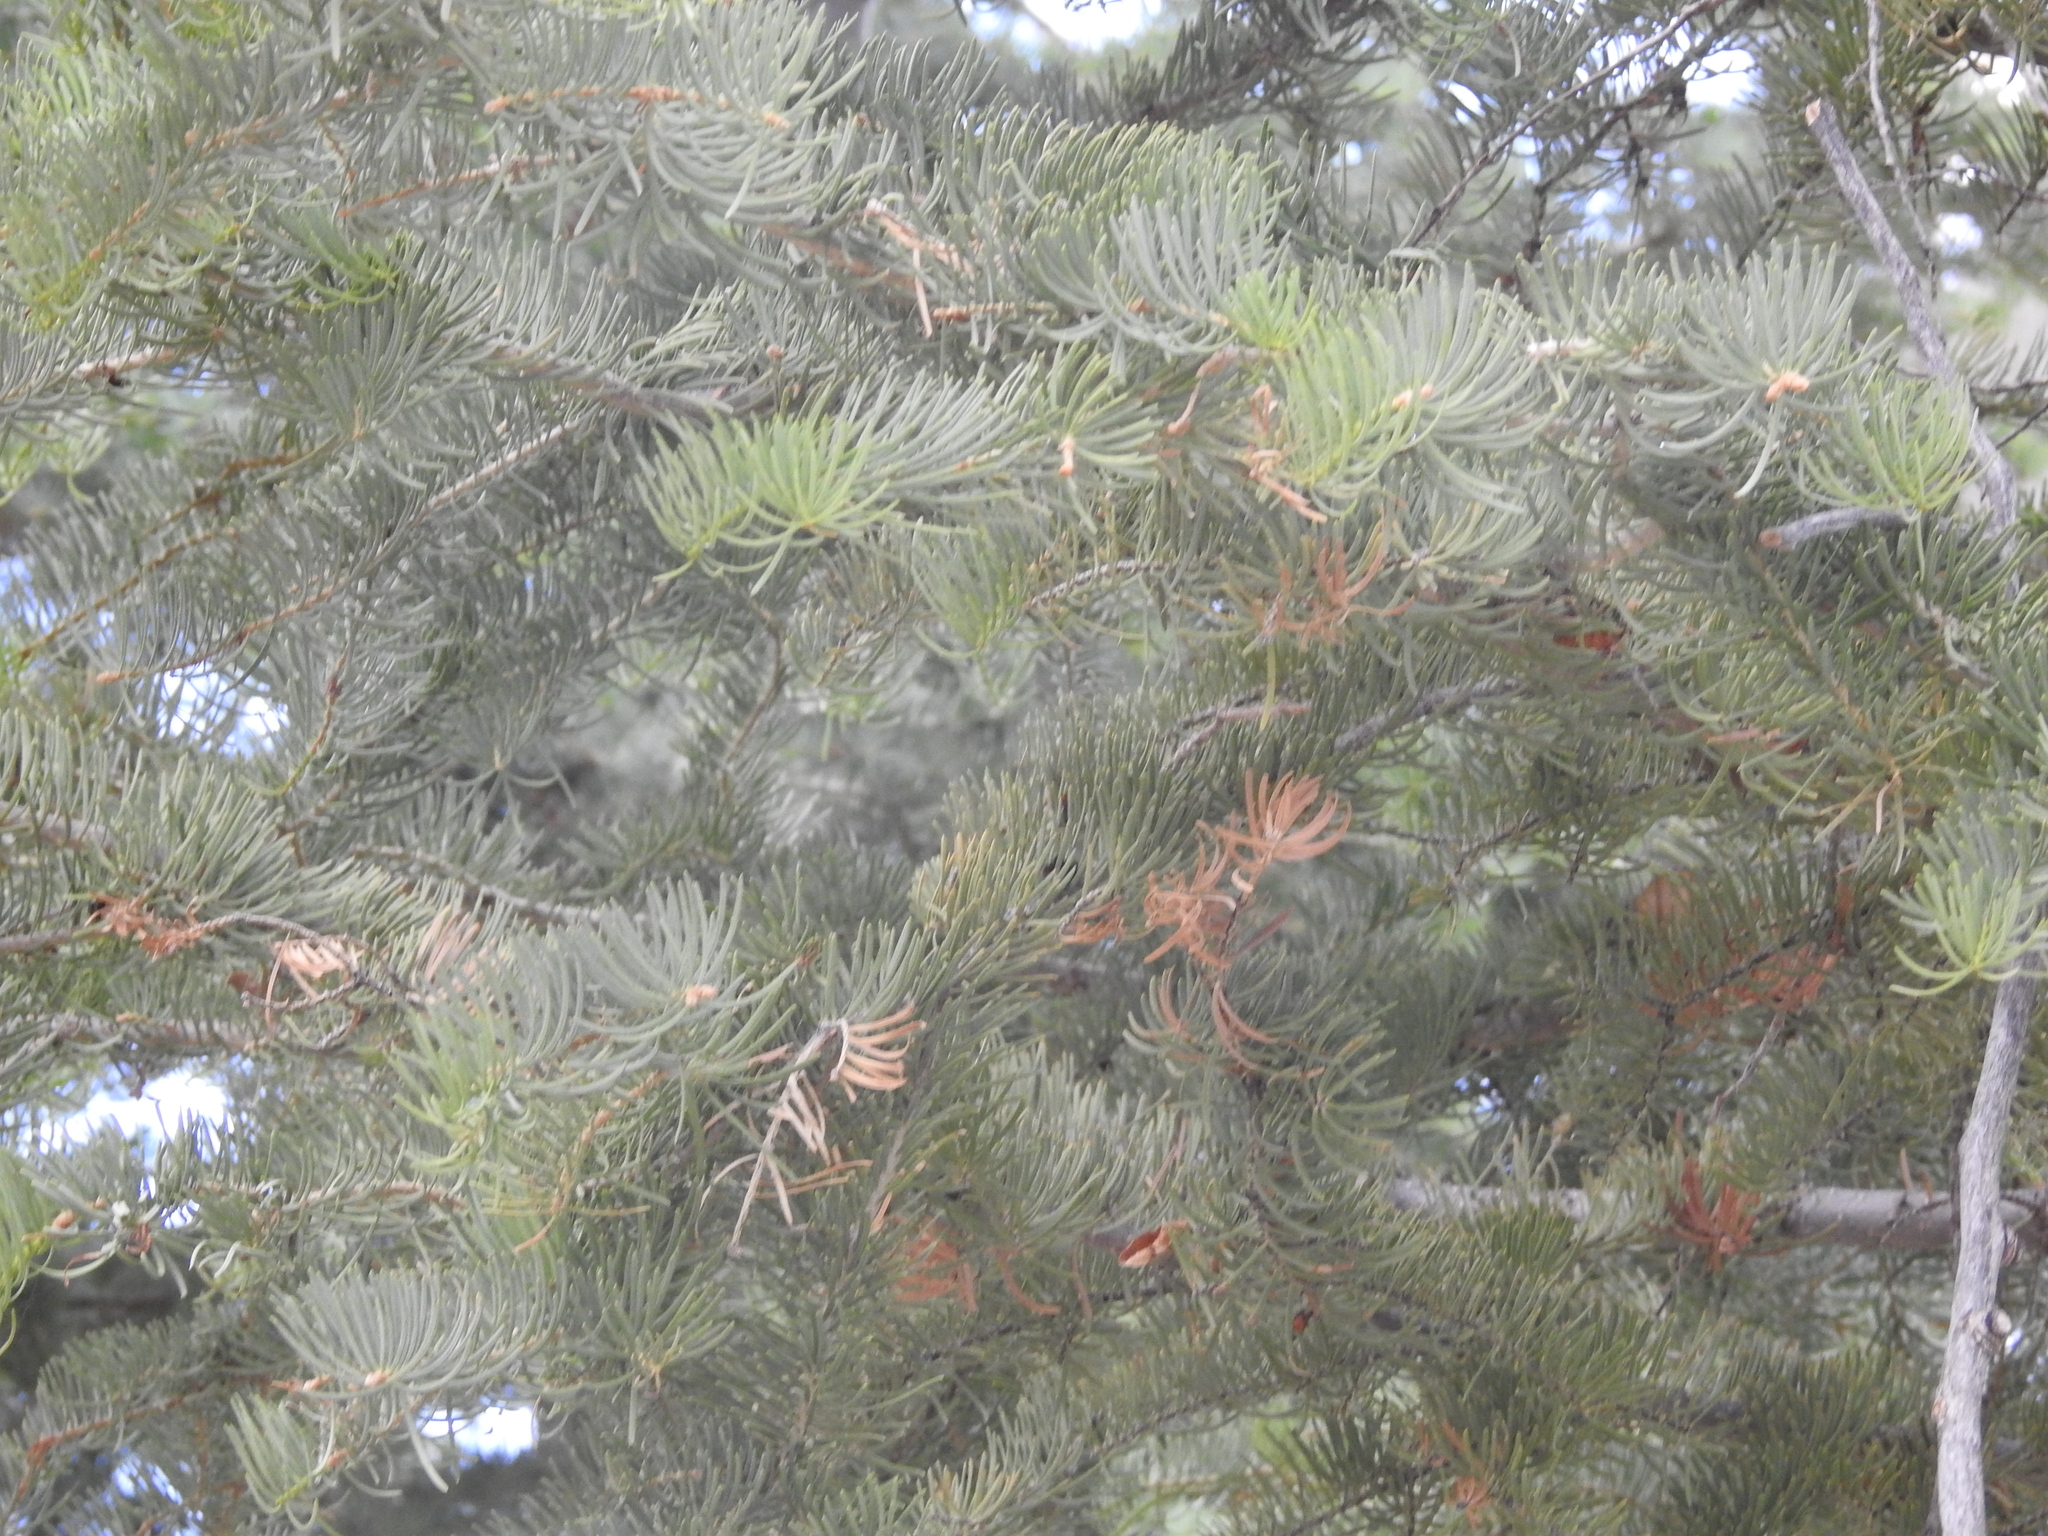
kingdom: Plantae
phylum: Tracheophyta
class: Pinopsida
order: Pinales
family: Pinaceae
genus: Abies
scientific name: Abies concolor
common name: Colorado fir
